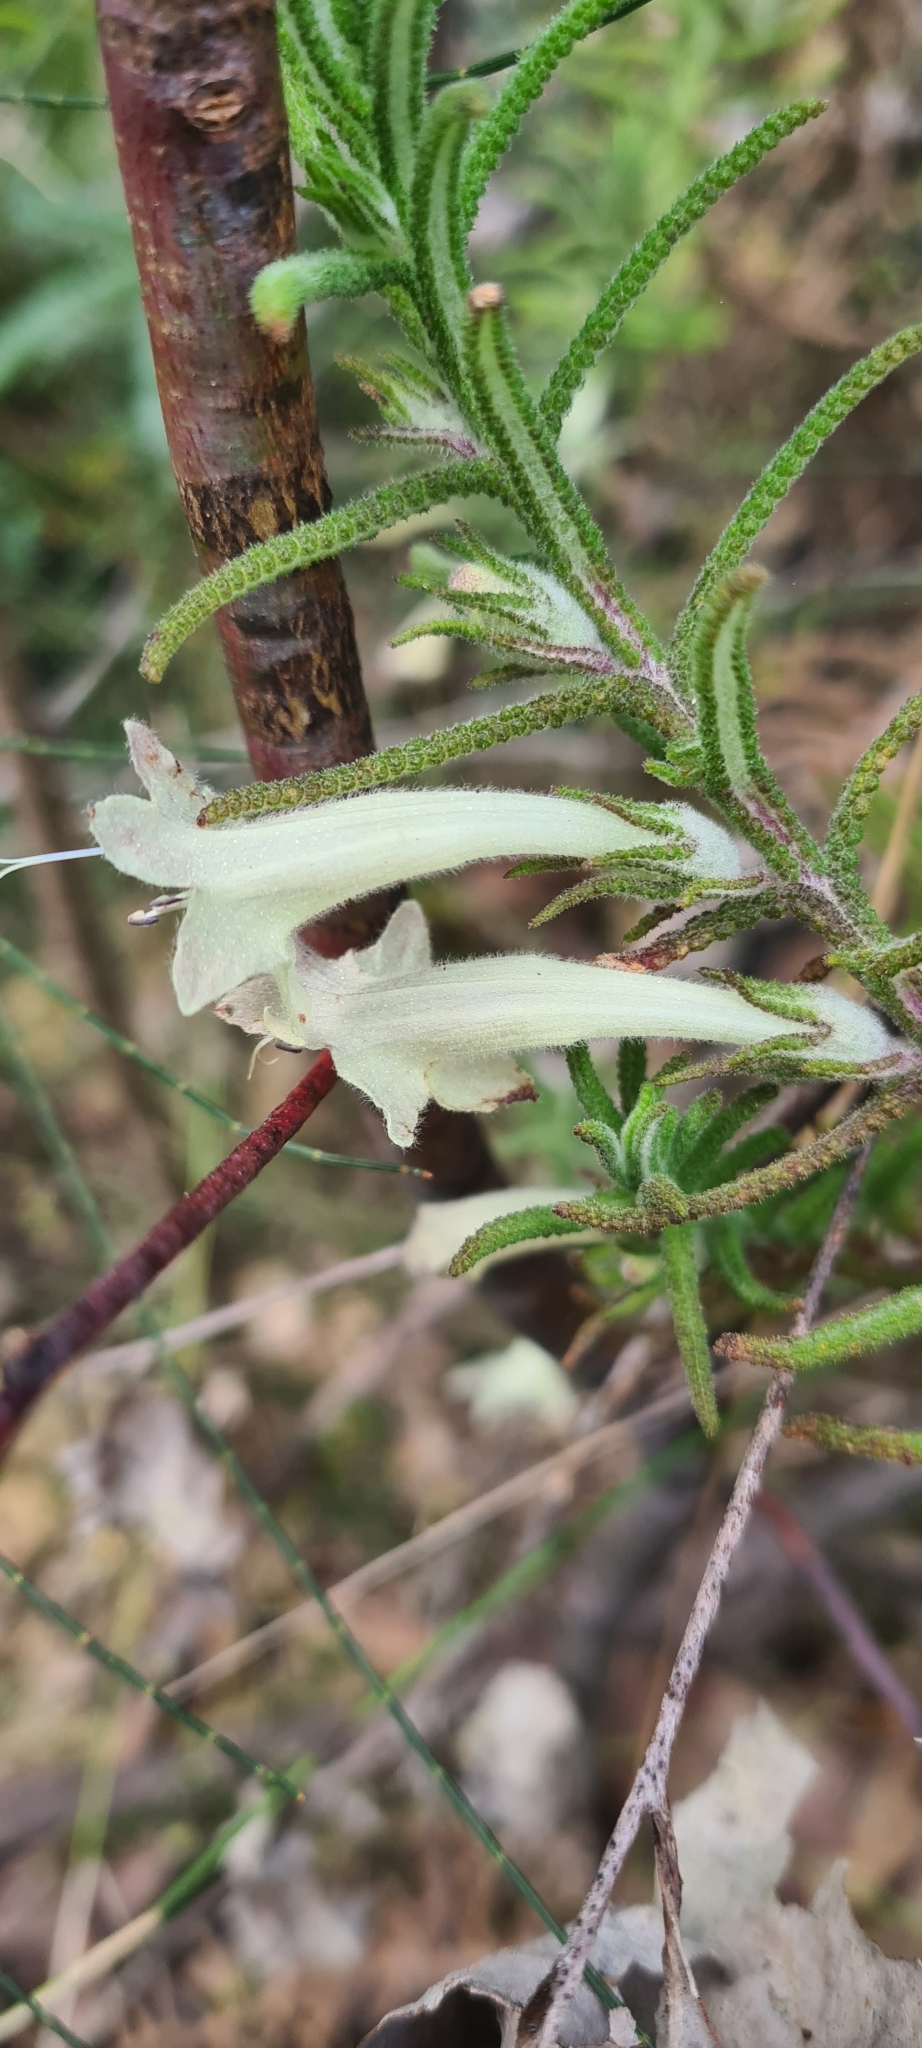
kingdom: Plantae
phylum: Tracheophyta
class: Magnoliopsida
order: Lamiales
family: Lamiaceae
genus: Chloanthes
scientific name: Chloanthes stoechadis
